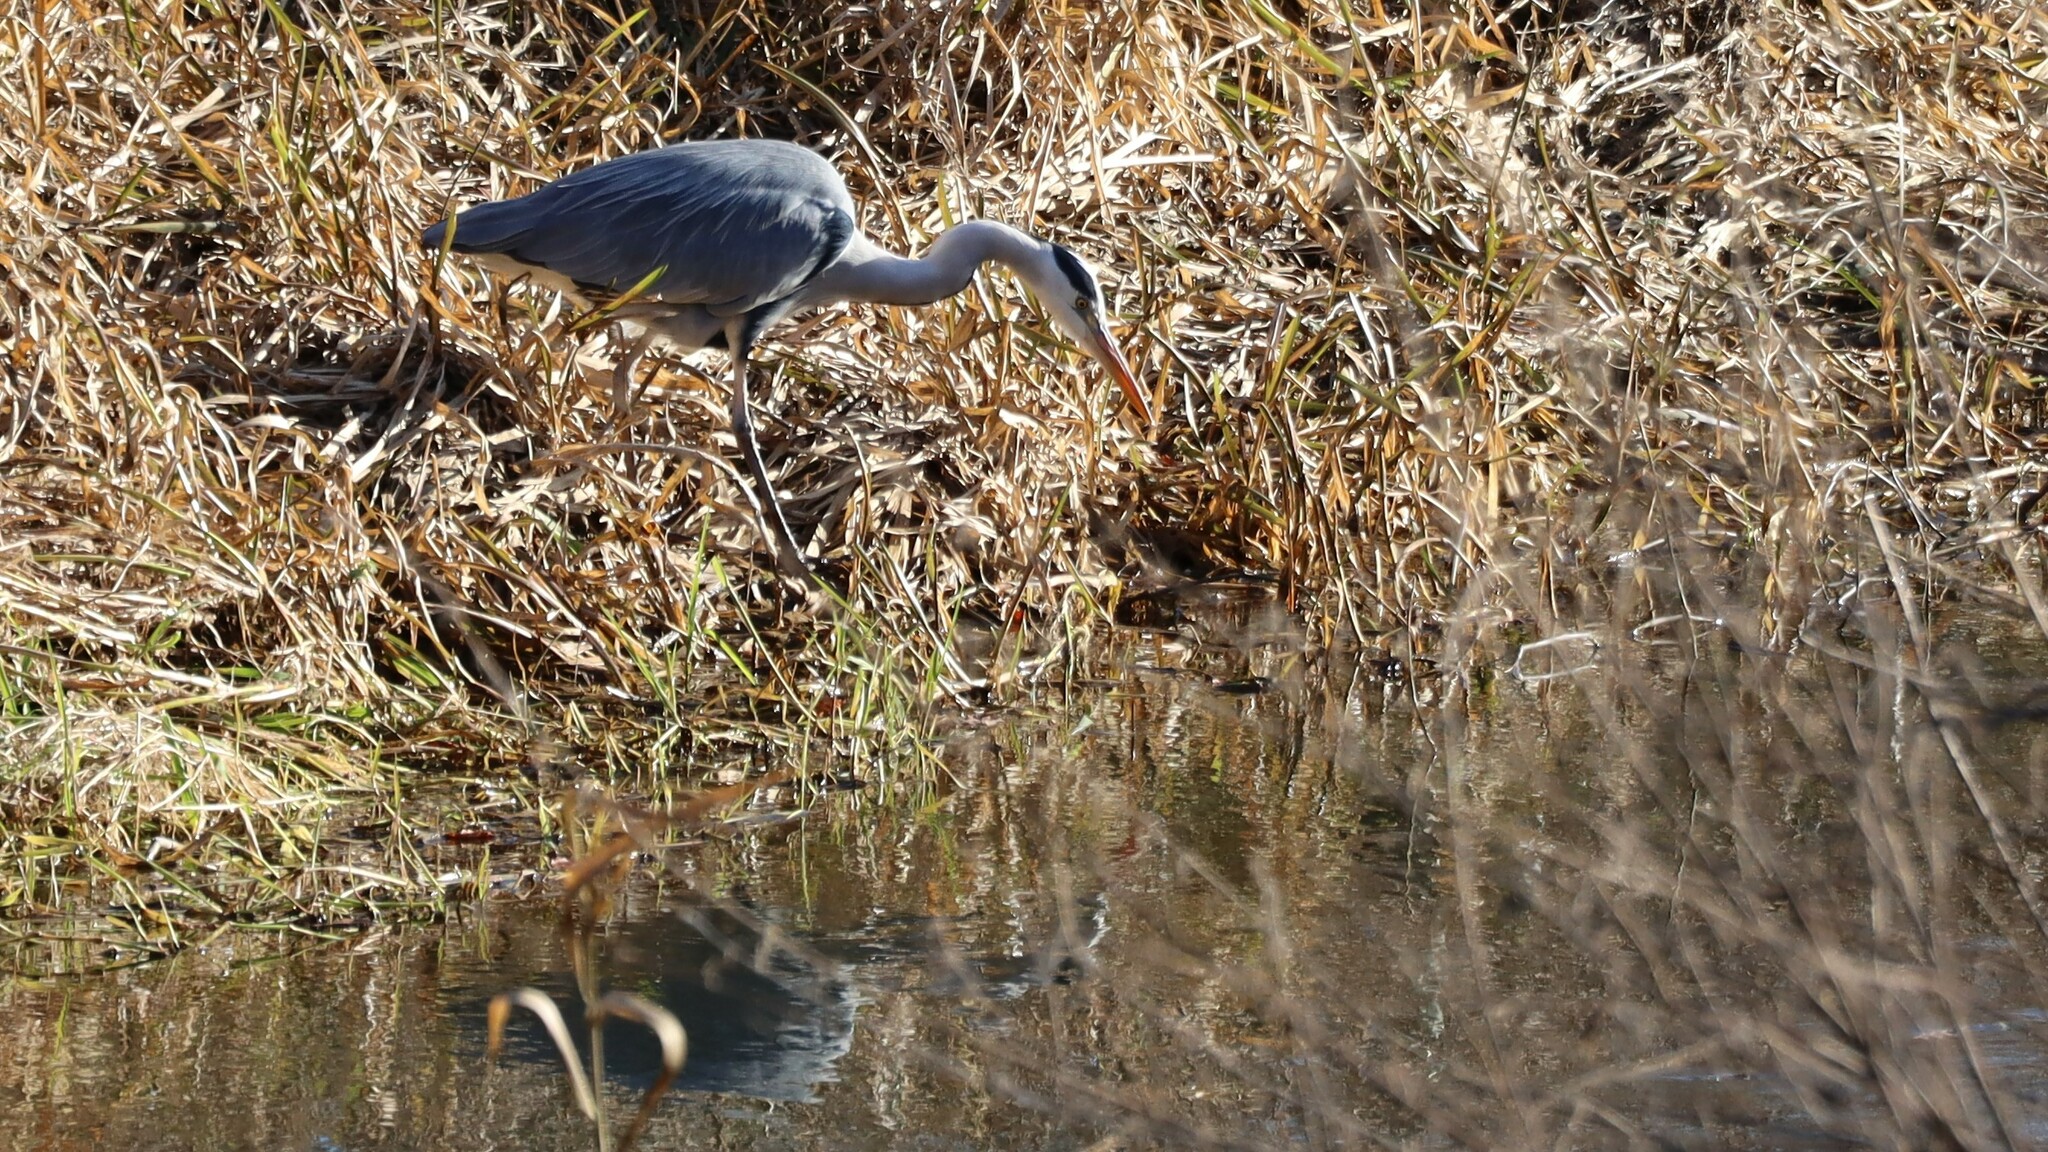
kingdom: Animalia
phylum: Chordata
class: Aves
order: Pelecaniformes
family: Ardeidae
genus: Ardea
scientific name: Ardea cinerea
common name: Grey heron
